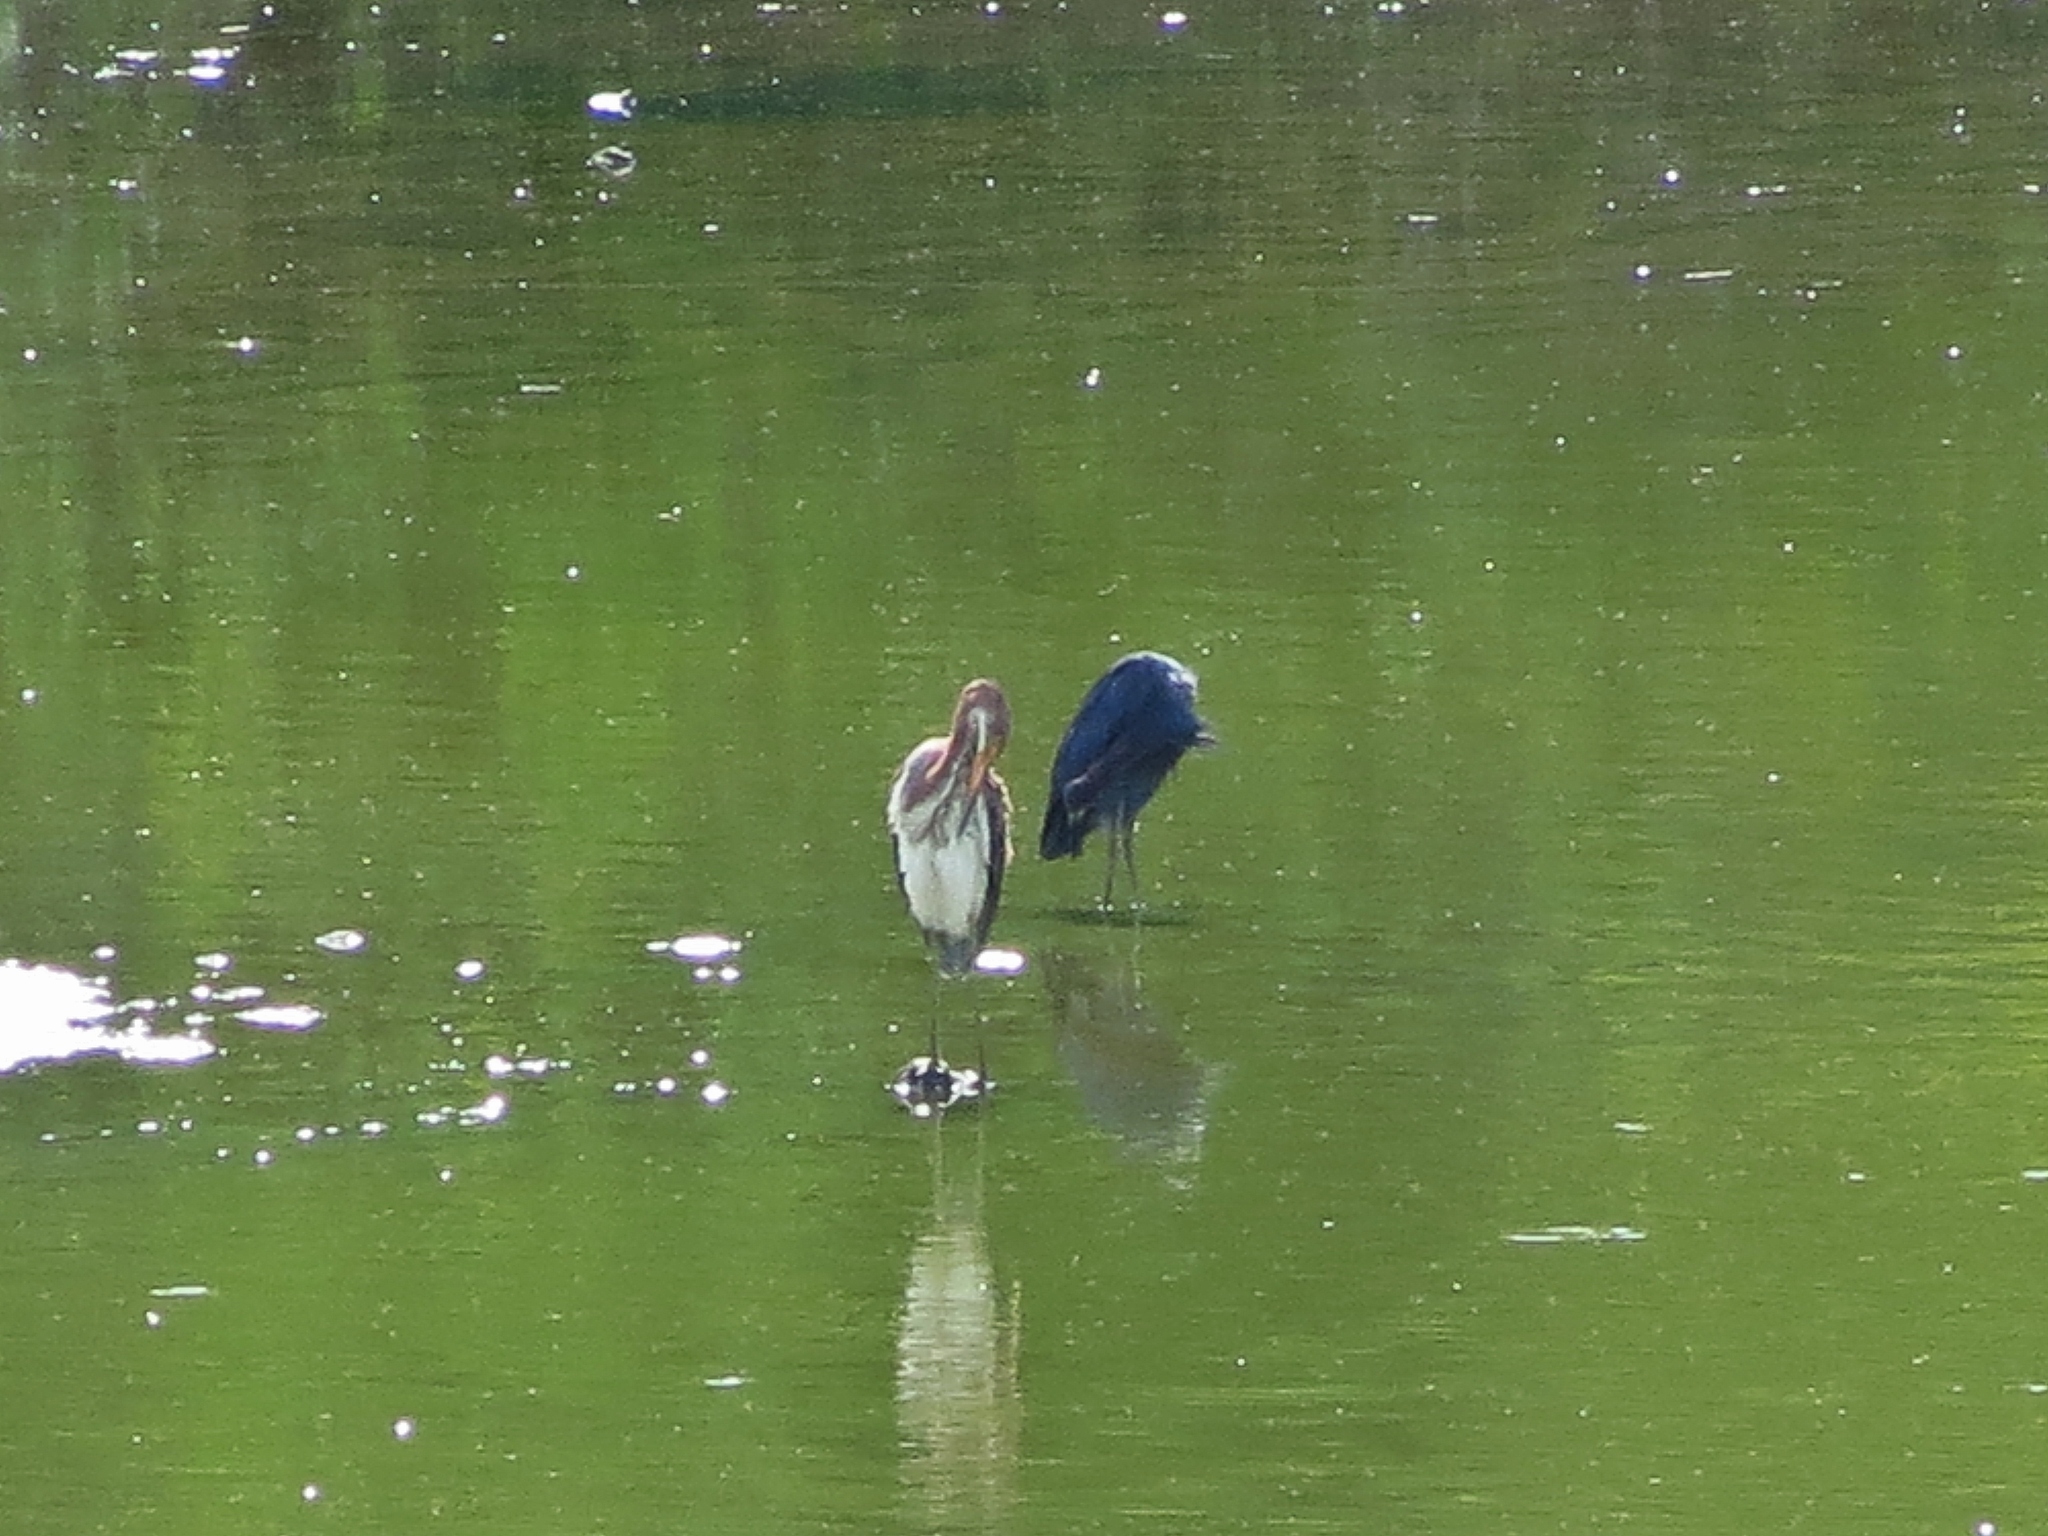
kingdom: Animalia
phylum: Chordata
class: Aves
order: Pelecaniformes
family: Ardeidae
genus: Egretta
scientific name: Egretta caerulea
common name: Little blue heron
